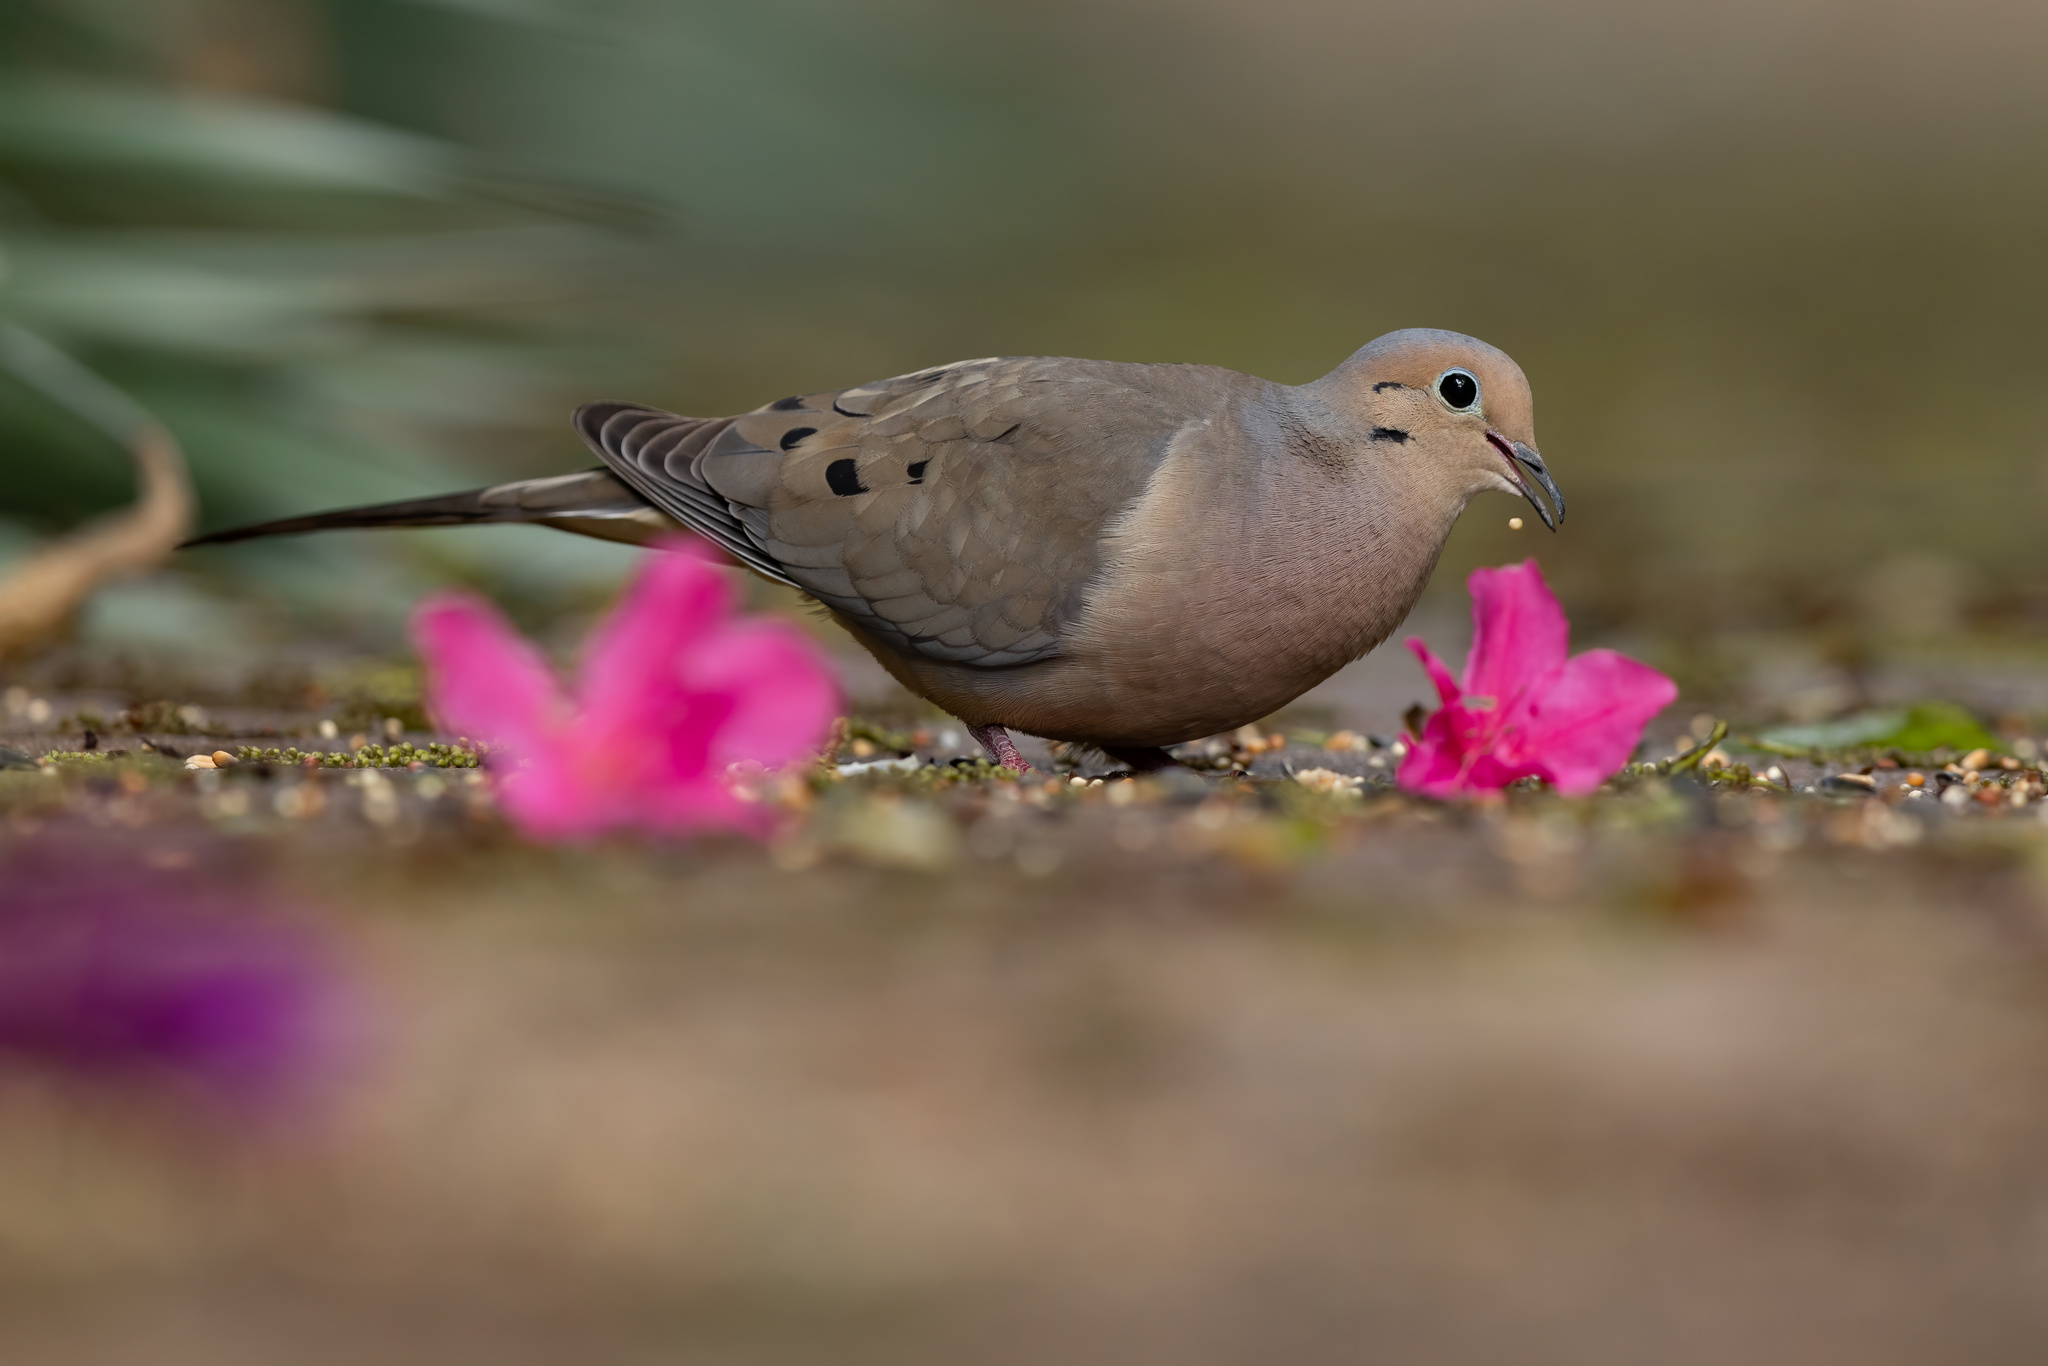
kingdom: Animalia
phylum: Chordata
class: Aves
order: Columbiformes
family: Columbidae
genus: Zenaida
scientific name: Zenaida macroura
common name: Mourning dove
